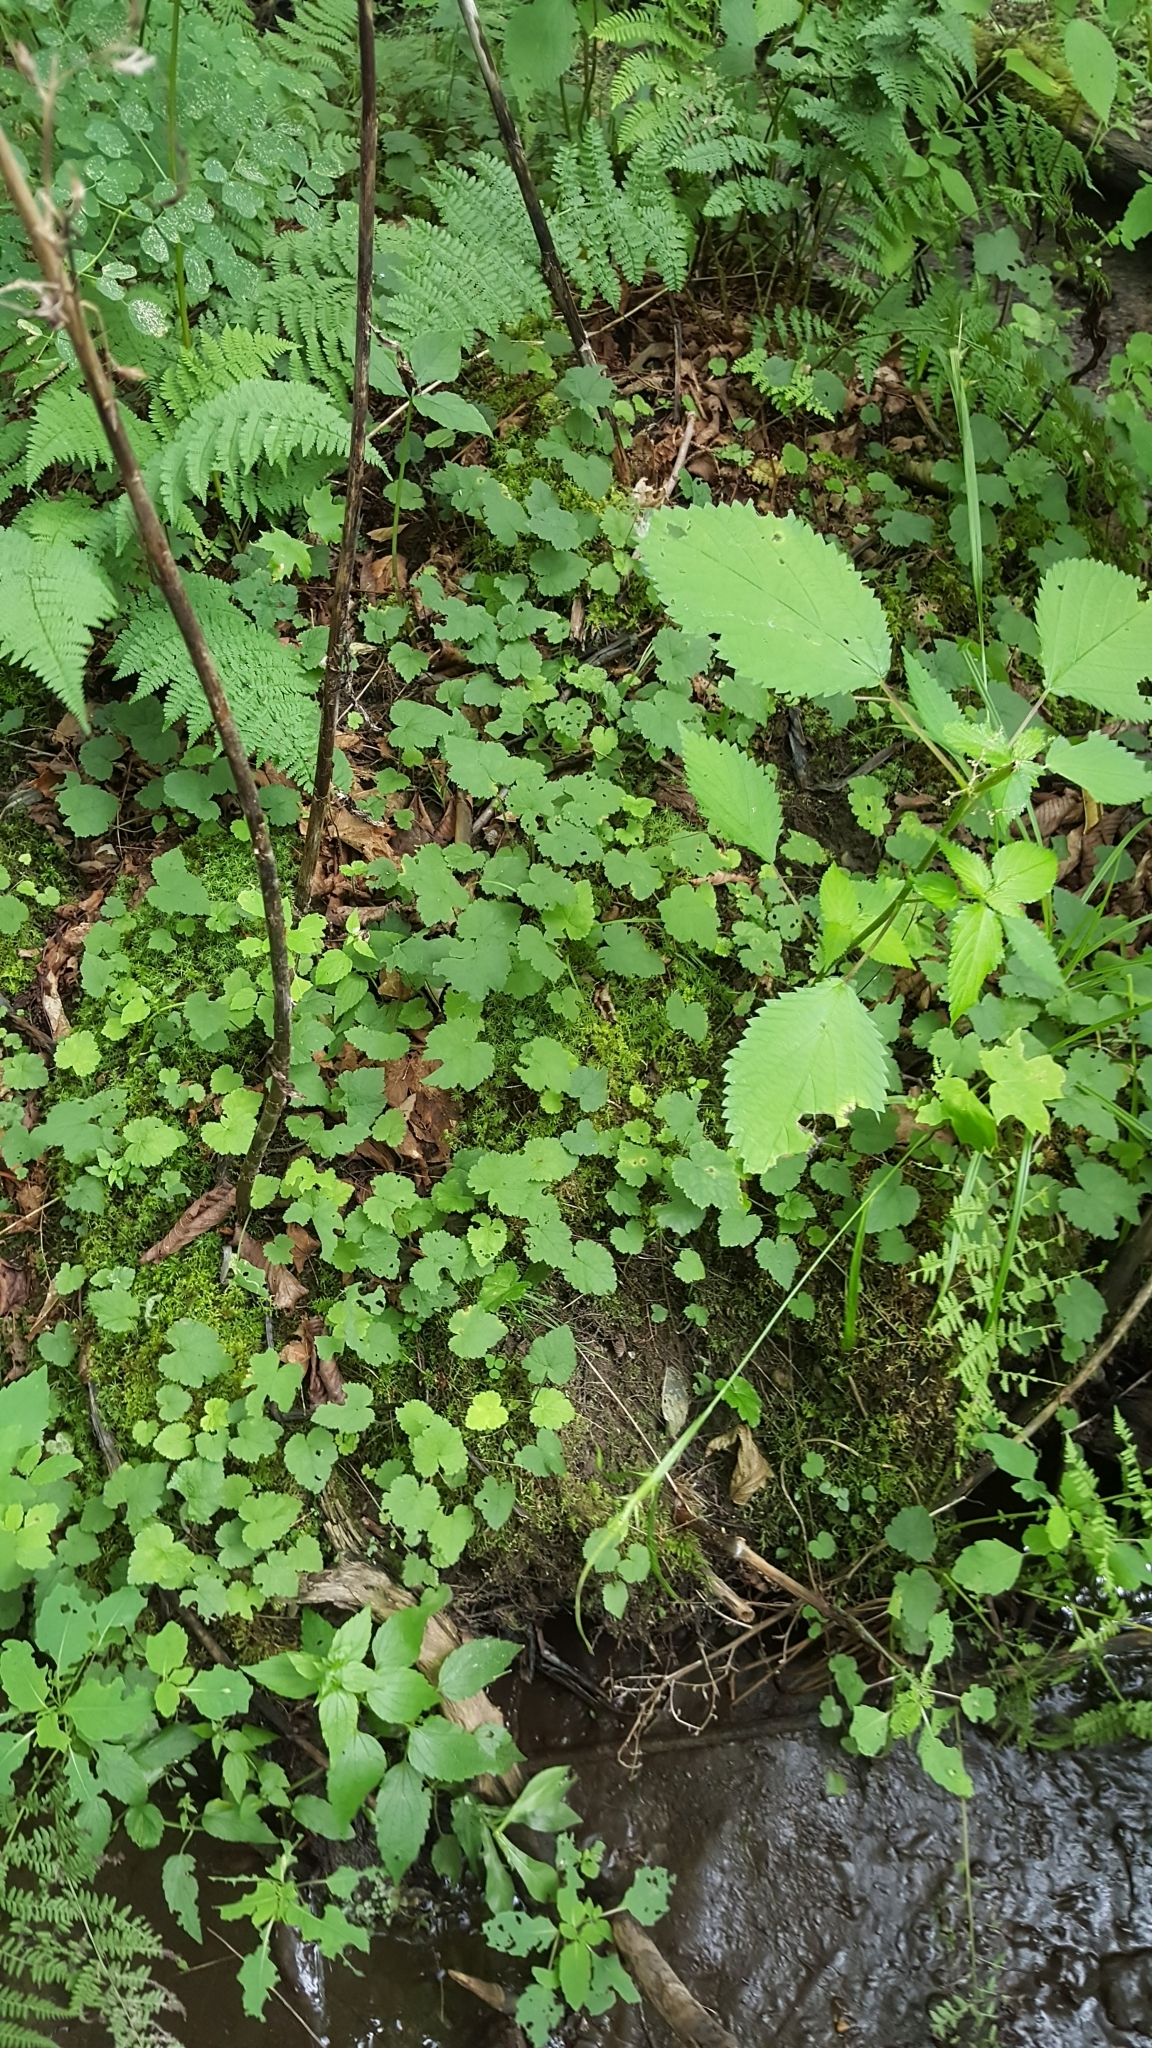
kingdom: Plantae
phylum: Tracheophyta
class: Magnoliopsida
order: Saxifragales
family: Saxifragaceae
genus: Tiarella
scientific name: Tiarella stolonifera
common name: Stoloniferous foamflower
